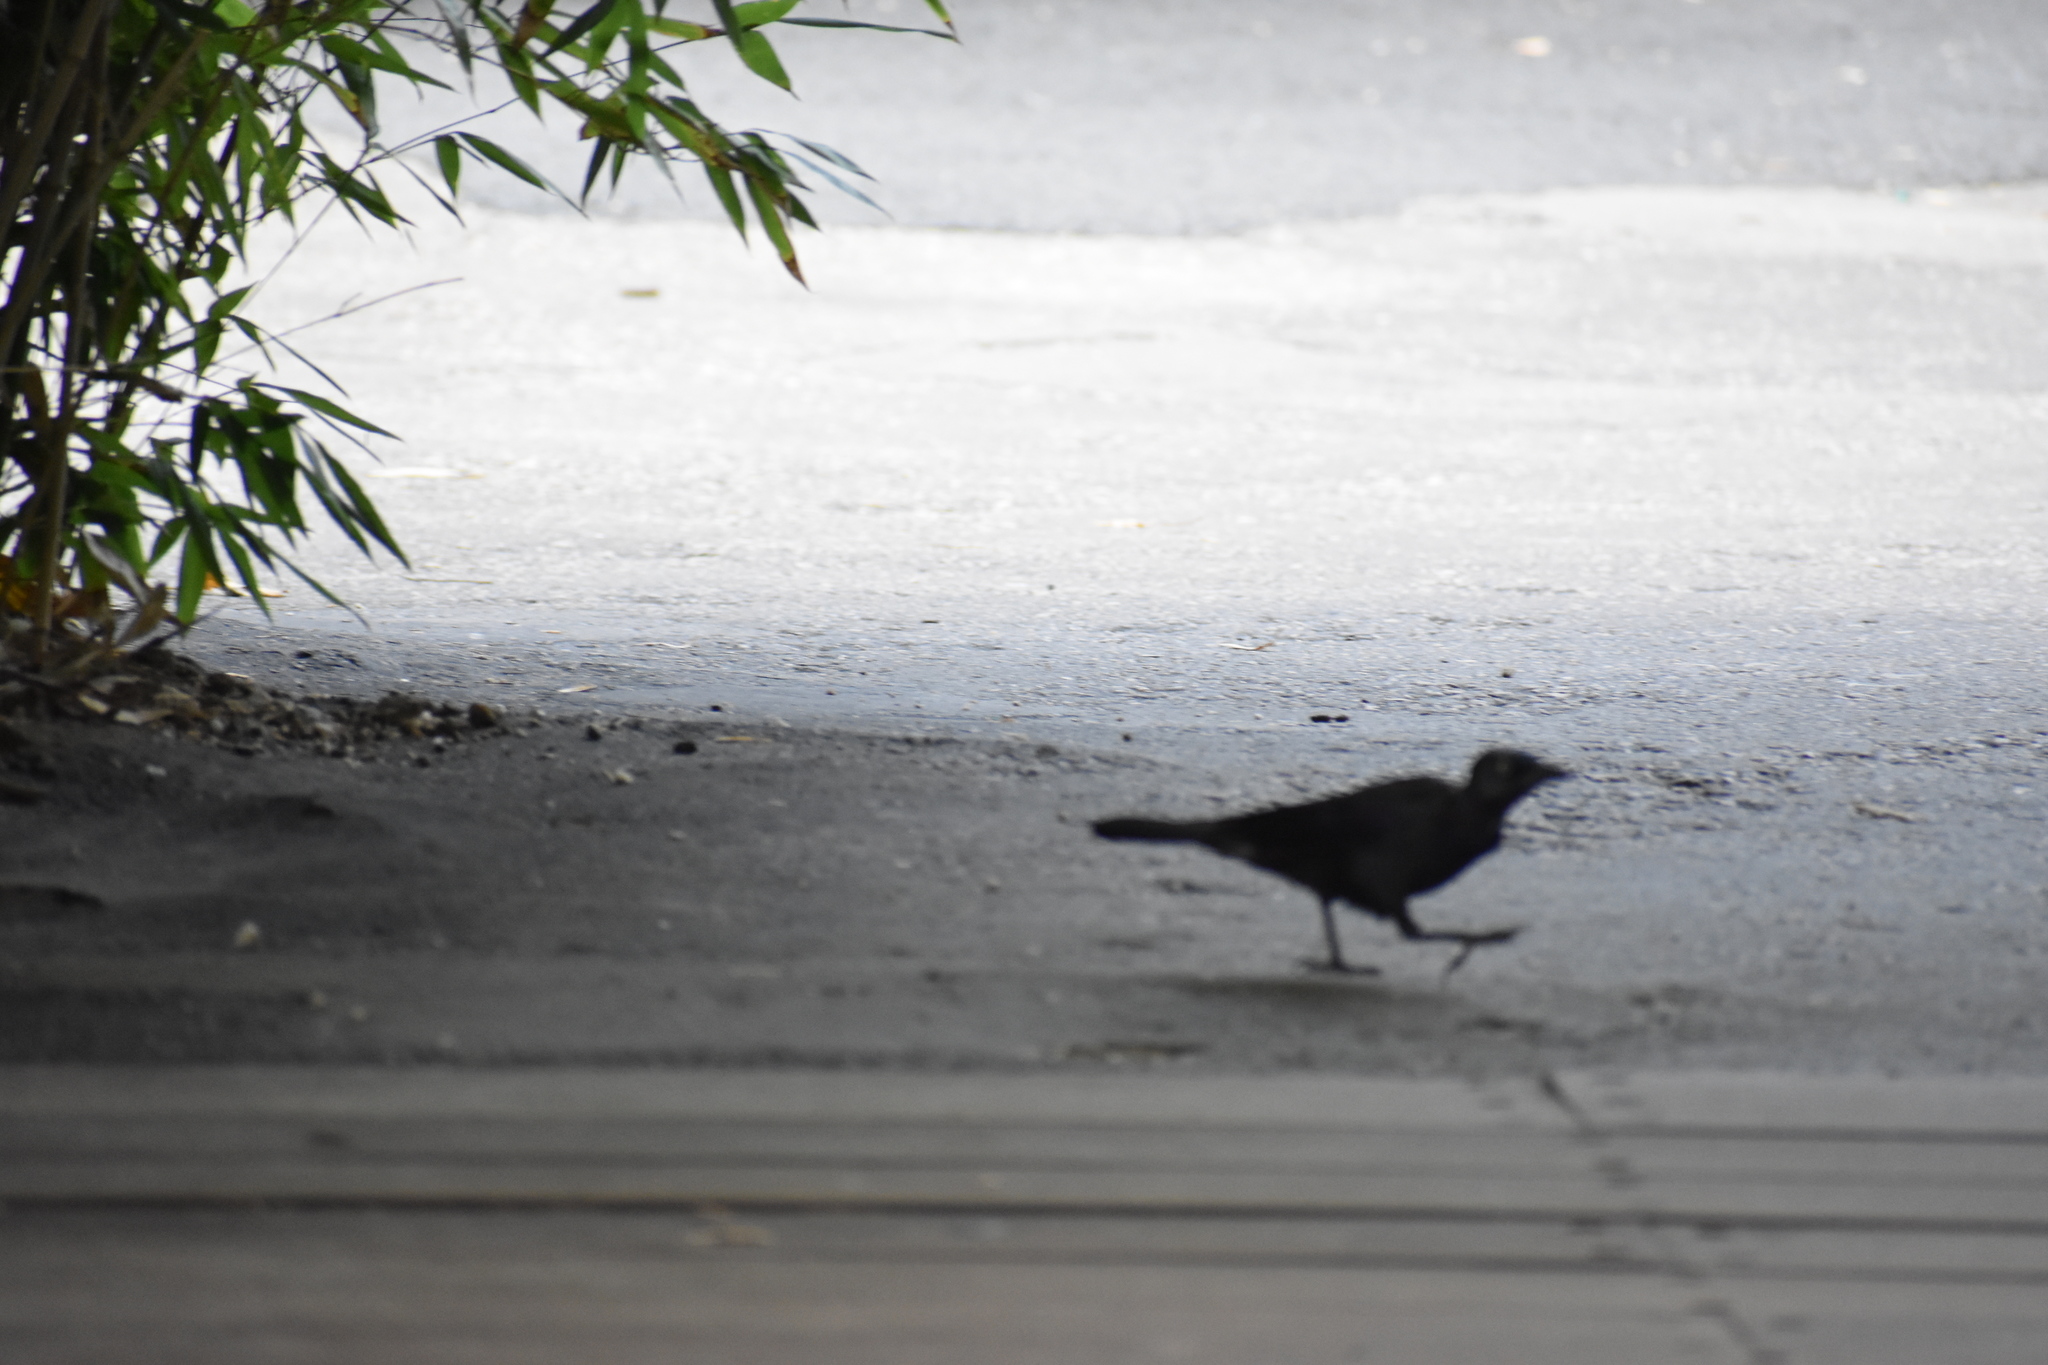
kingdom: Animalia
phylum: Chordata
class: Aves
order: Passeriformes
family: Icteridae
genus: Quiscalus
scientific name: Quiscalus quiscula
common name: Common grackle
